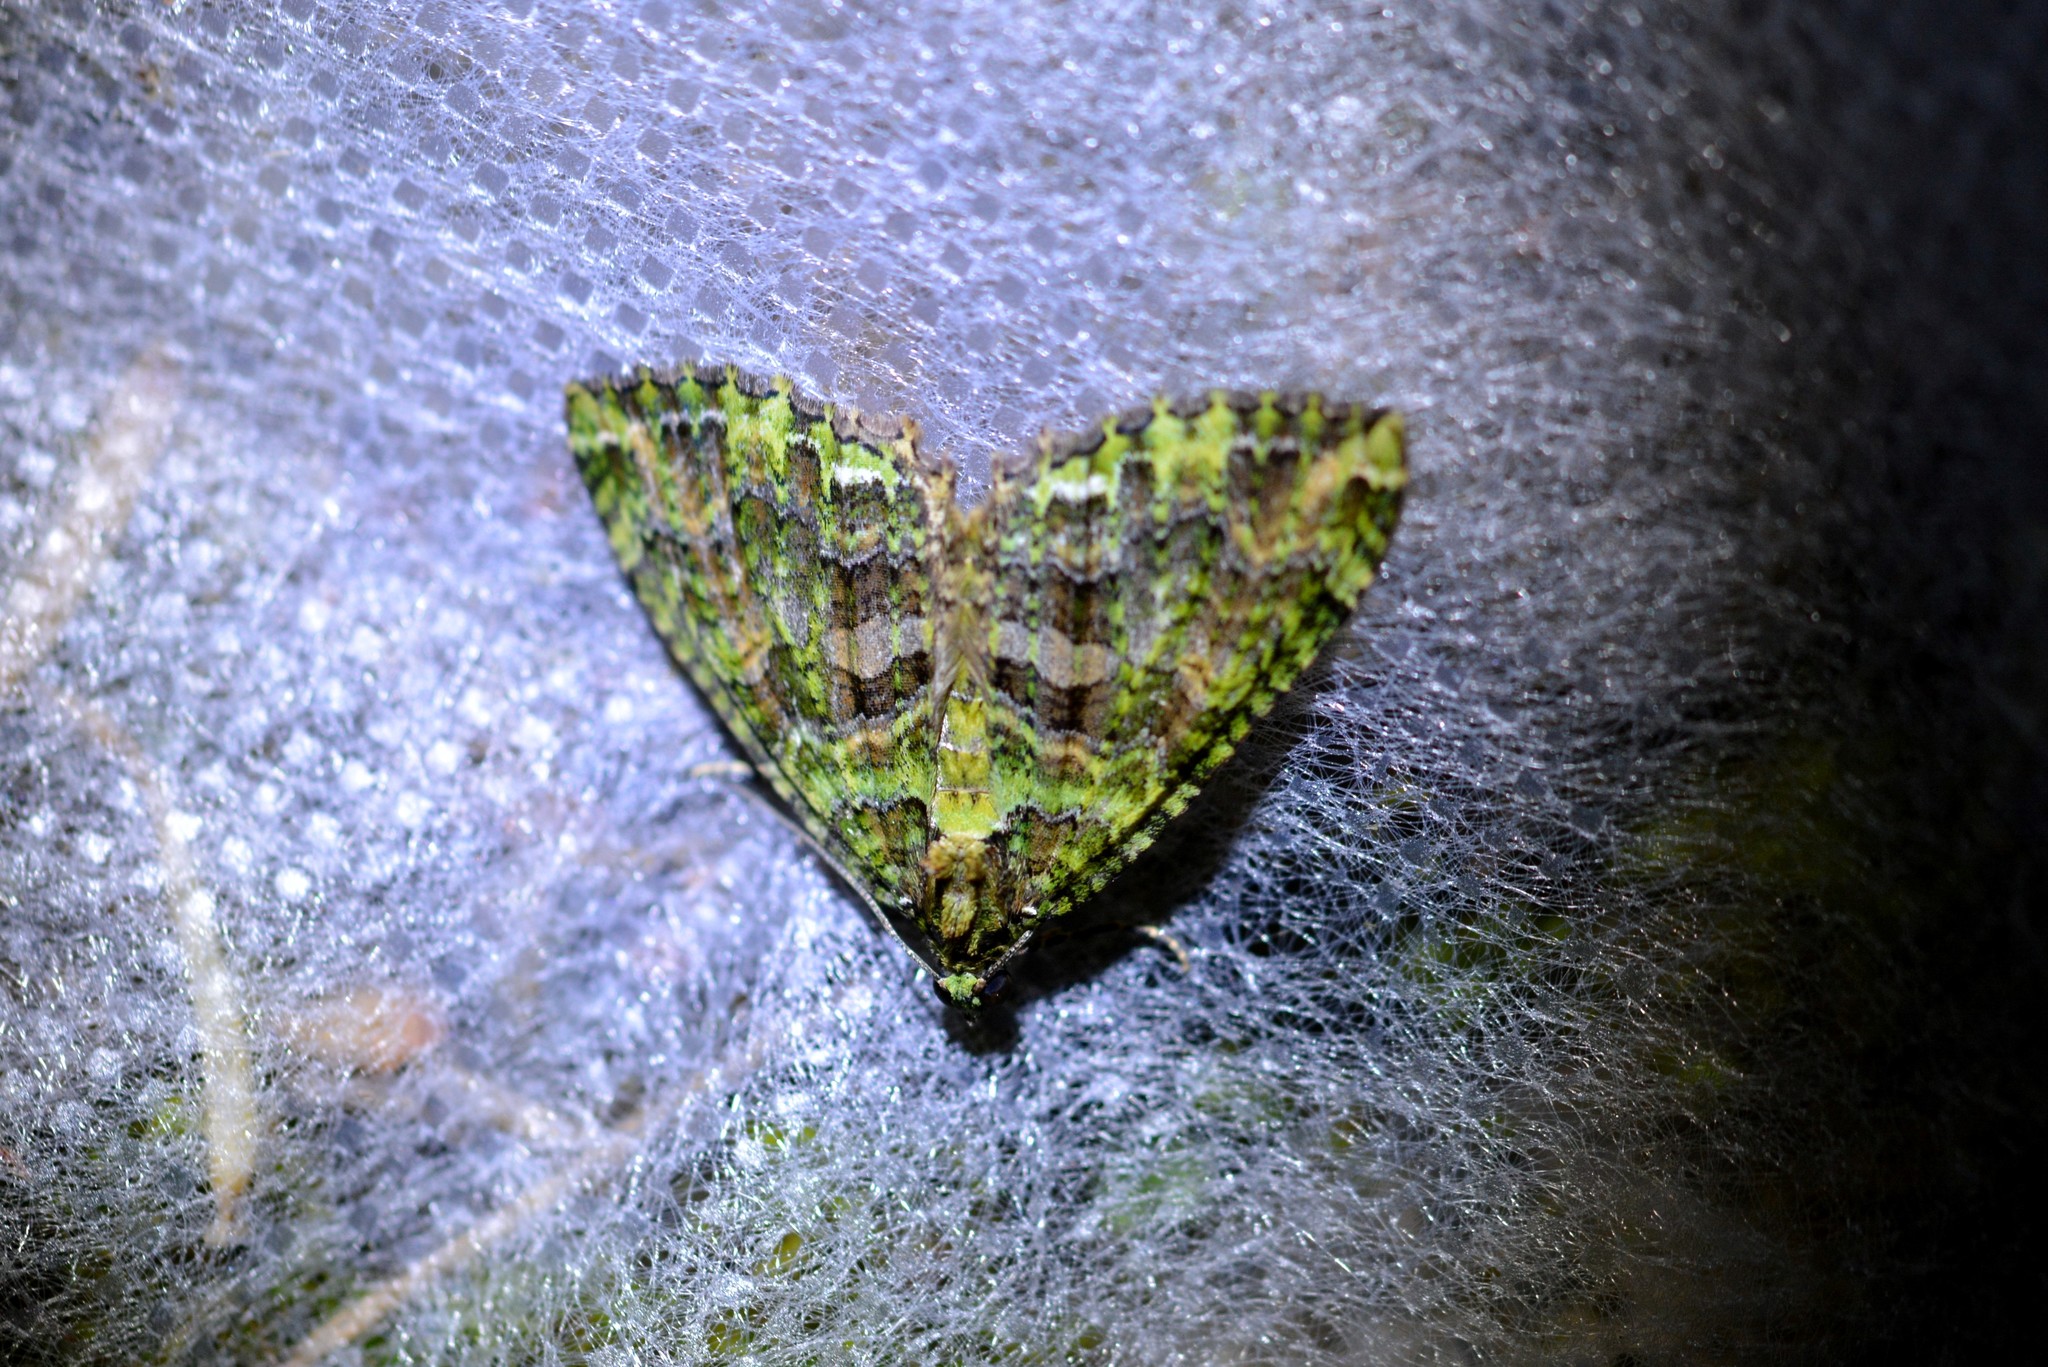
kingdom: Animalia
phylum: Arthropoda
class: Insecta
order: Lepidoptera
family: Geometridae
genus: Austrocidaria
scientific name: Austrocidaria similata
